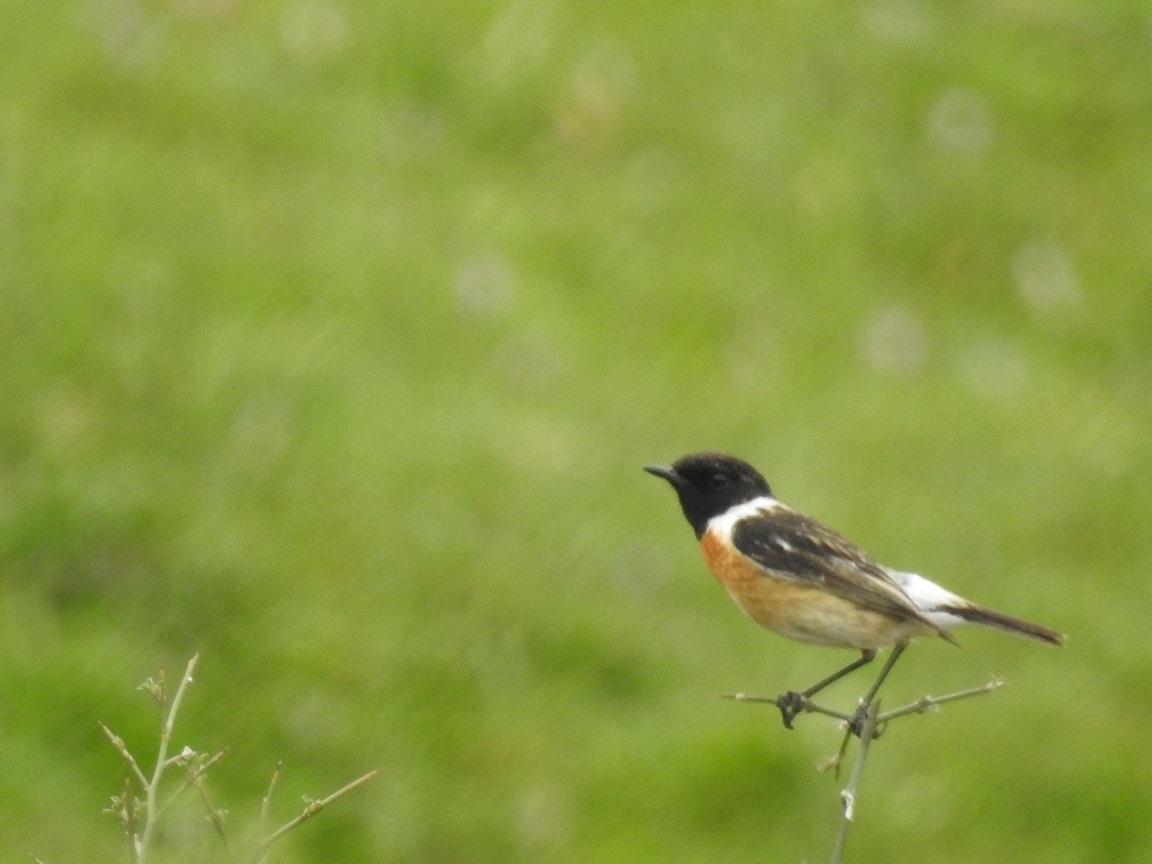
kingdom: Animalia
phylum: Chordata
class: Aves
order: Passeriformes
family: Muscicapidae
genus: Saxicola
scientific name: Saxicola rubicola
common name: European stonechat
